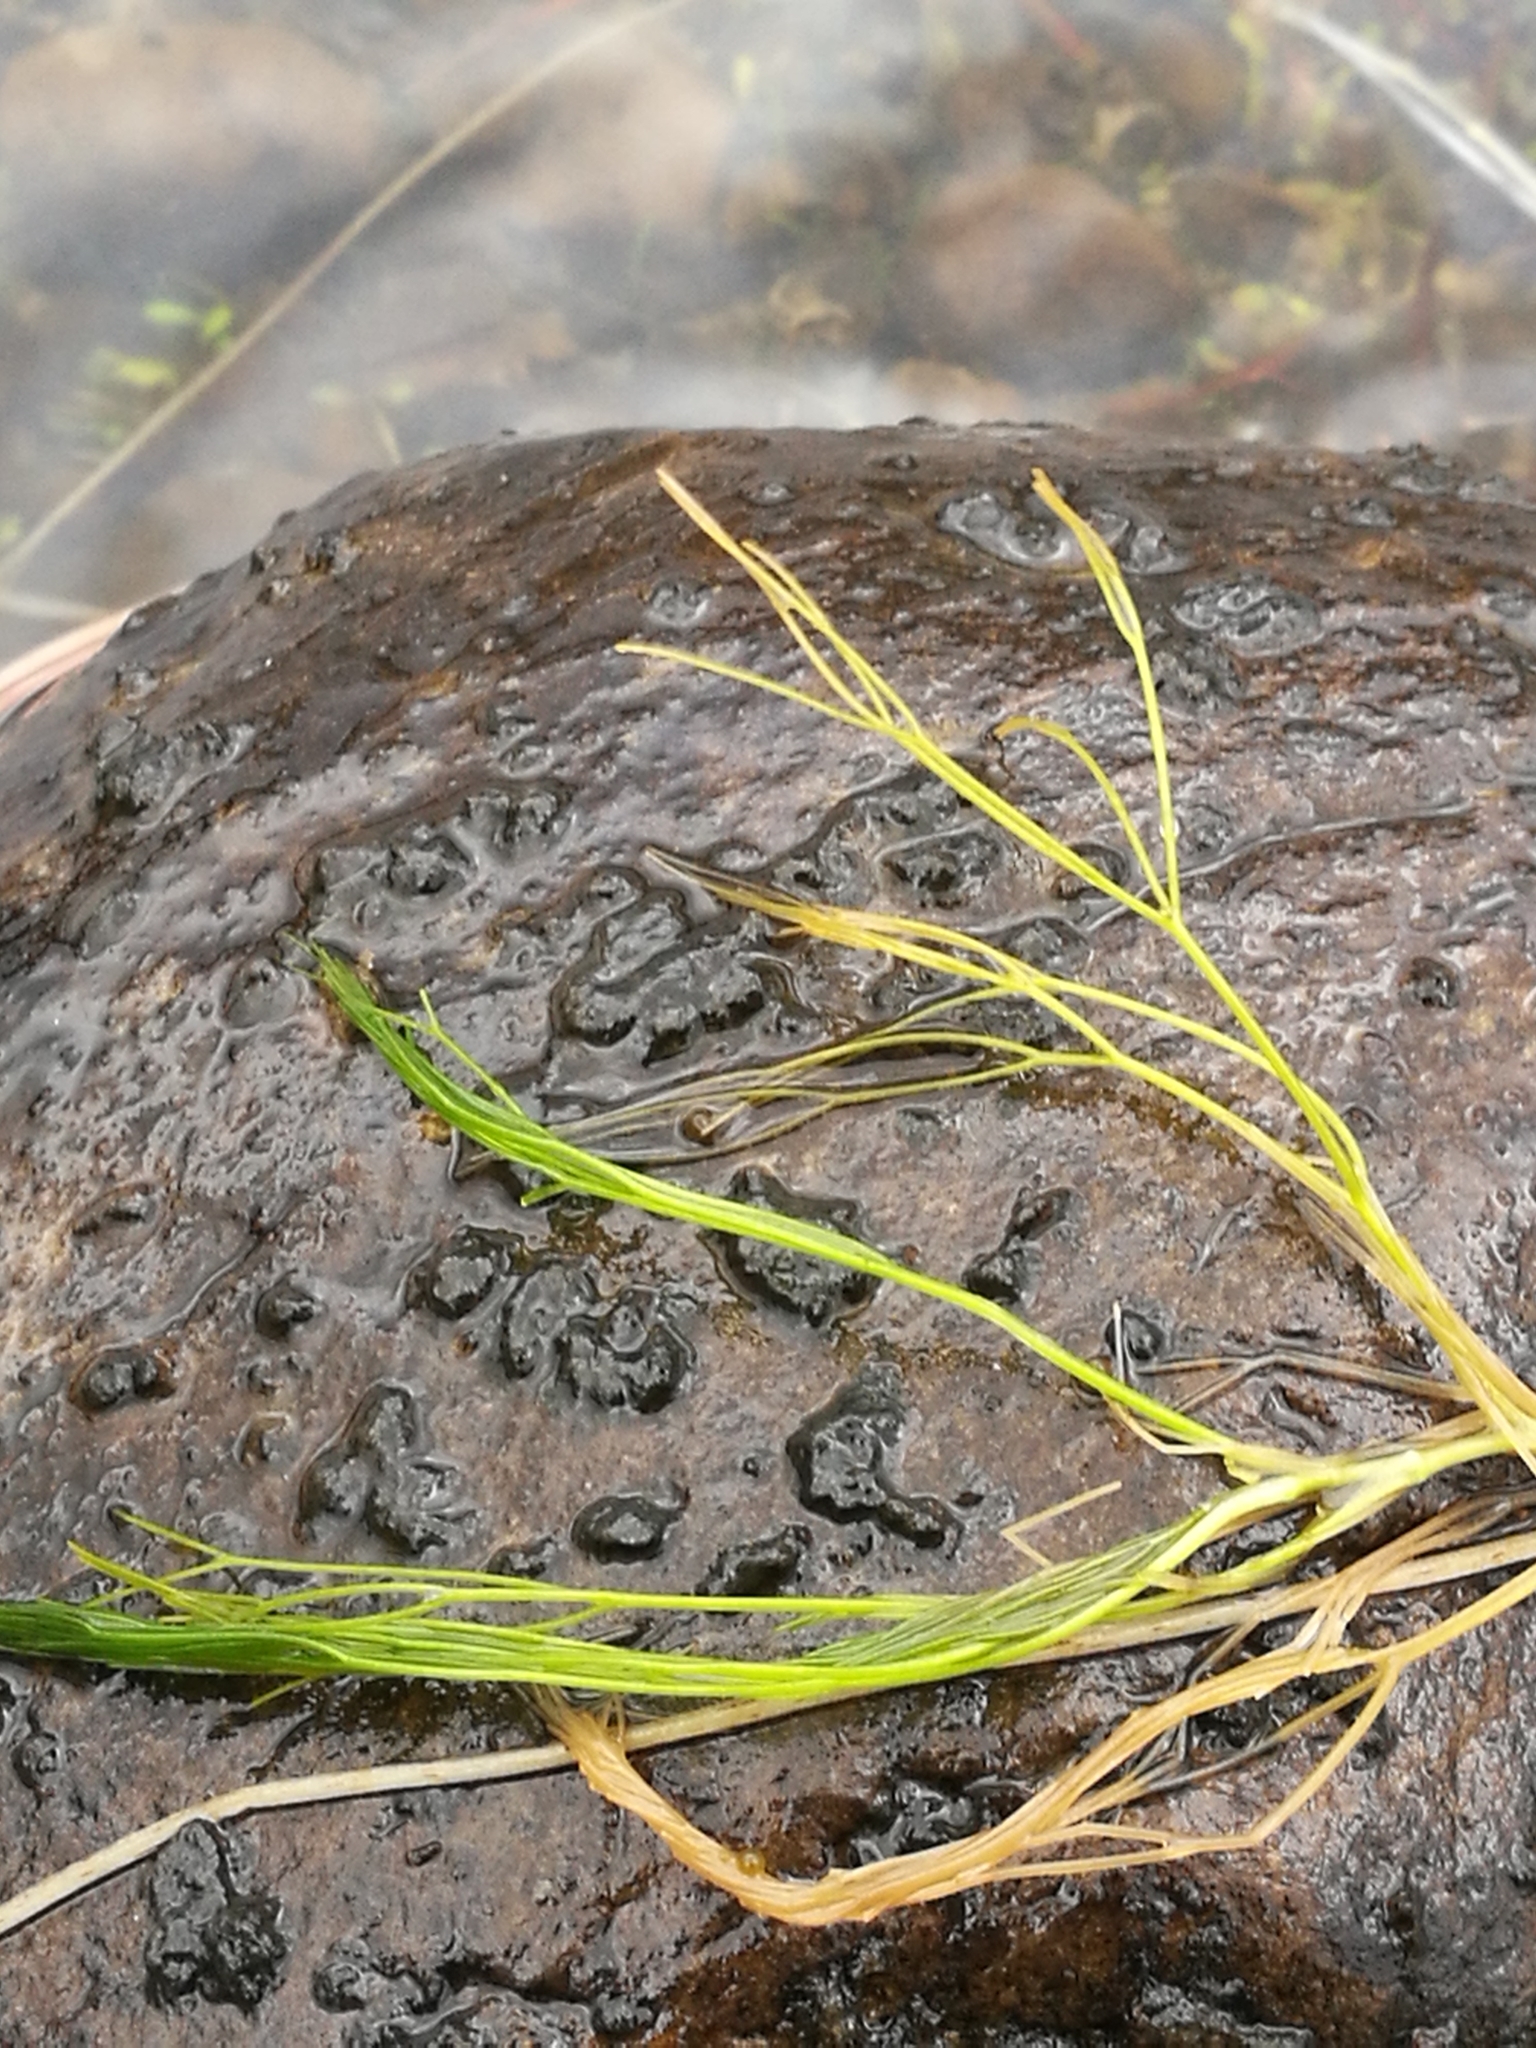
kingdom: Plantae
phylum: Tracheophyta
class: Magnoliopsida
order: Ranunculales
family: Ranunculaceae
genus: Ranunculus
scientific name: Ranunculus trichophyllus
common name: Thread-leaved water-crowfoot
